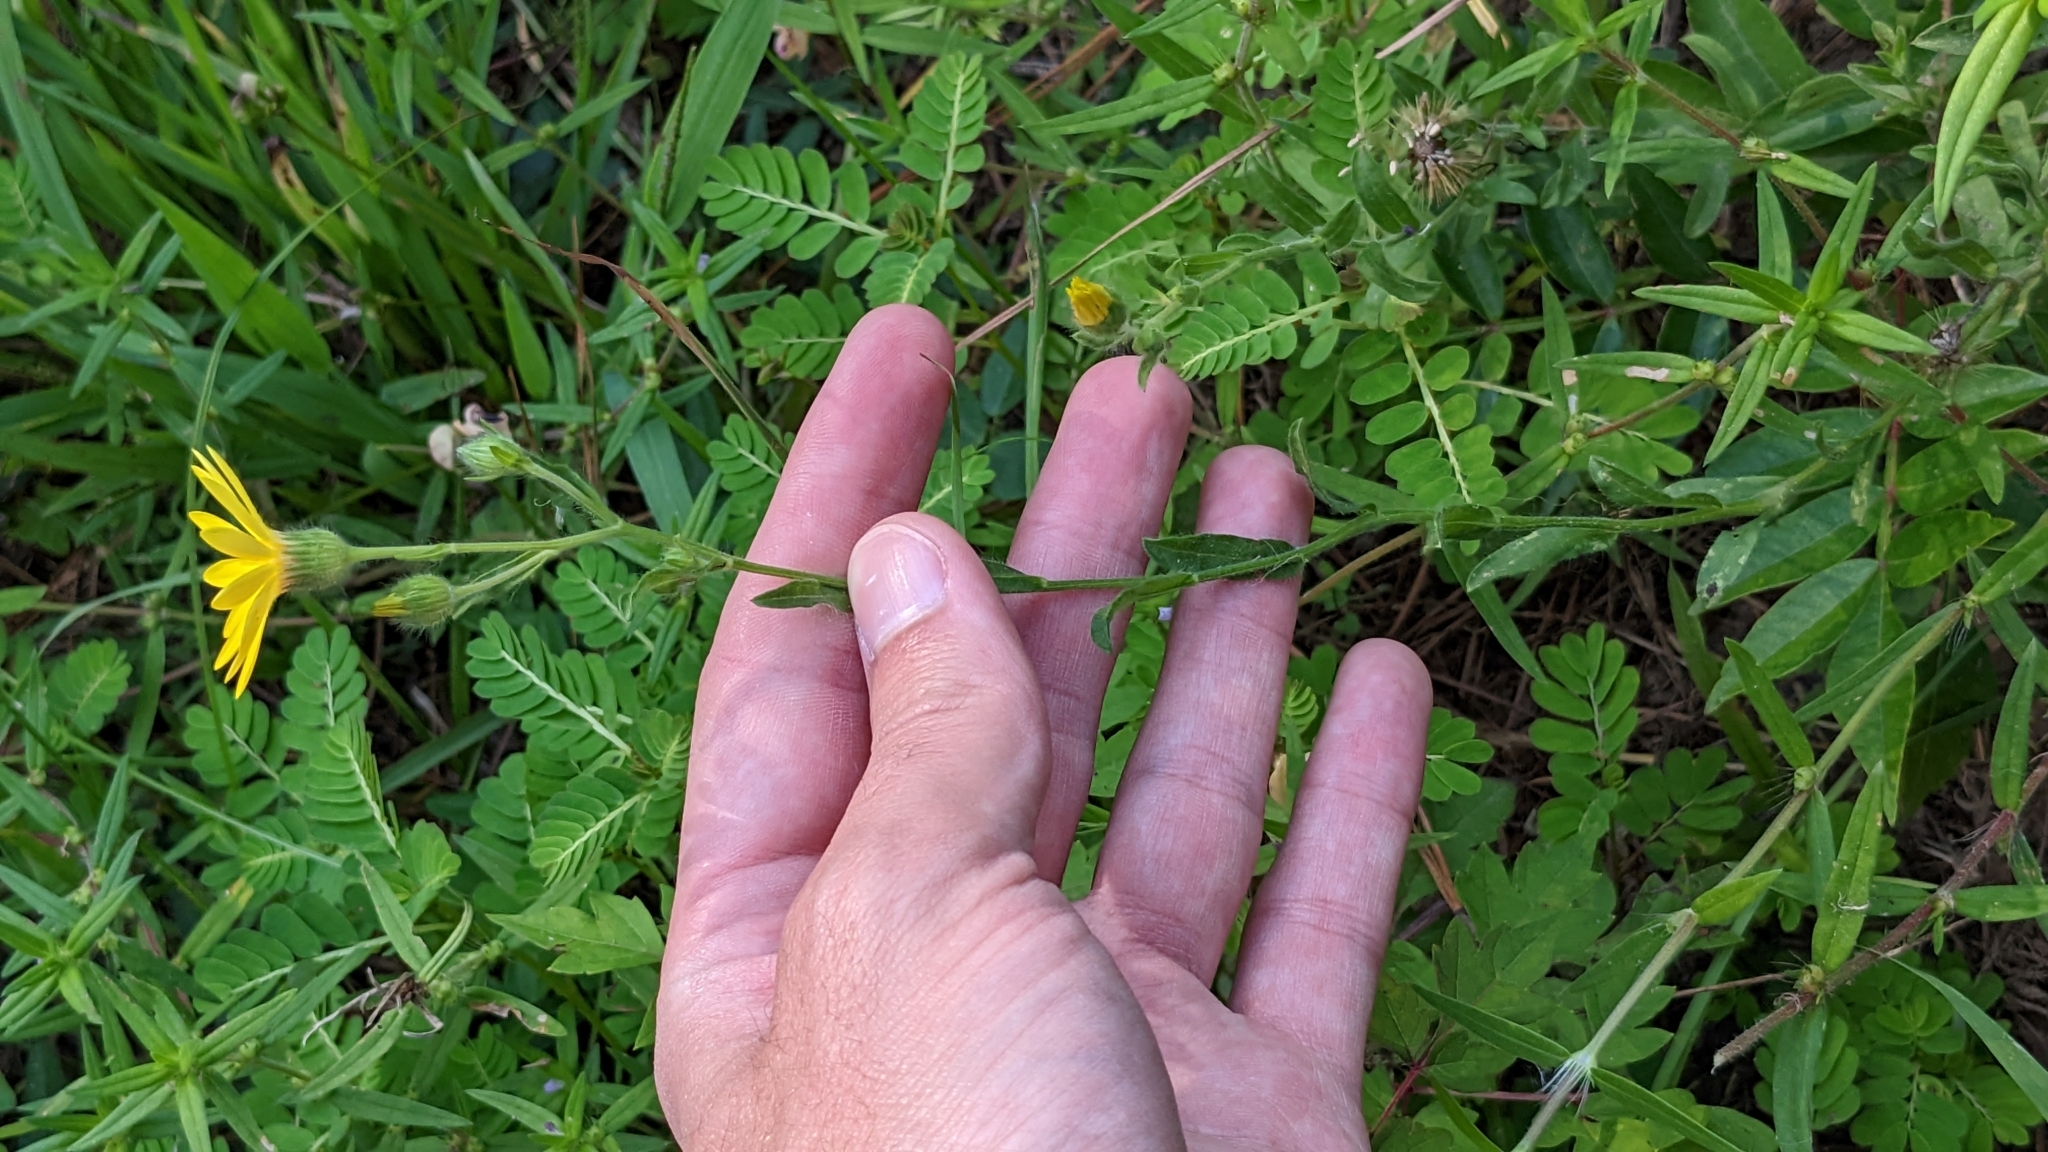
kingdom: Plantae
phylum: Tracheophyta
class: Magnoliopsida
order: Asterales
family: Asteraceae
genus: Bradburia
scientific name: Bradburia pilosa
